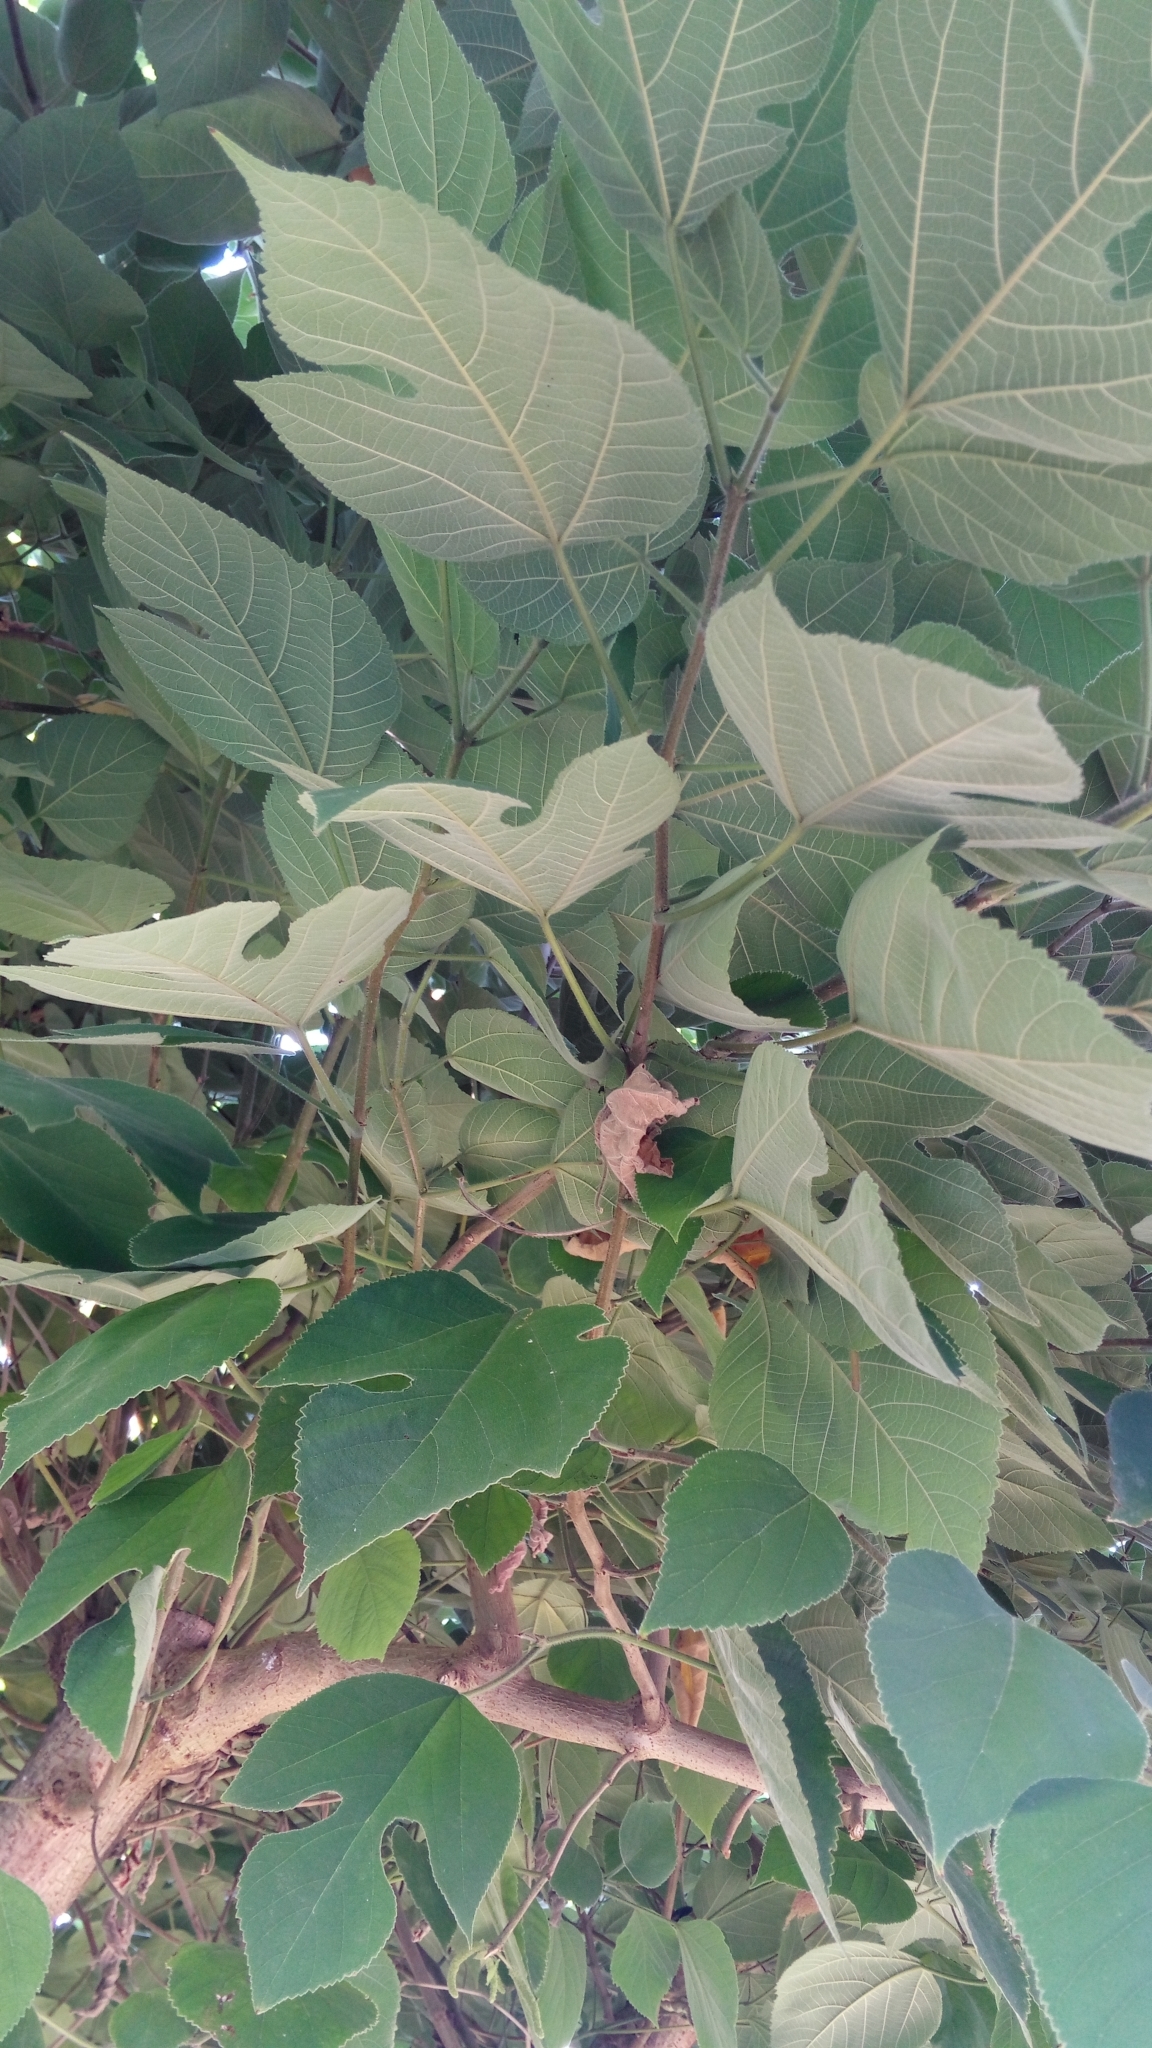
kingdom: Plantae
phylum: Tracheophyta
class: Magnoliopsida
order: Rosales
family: Moraceae
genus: Broussonetia
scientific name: Broussonetia papyrifera
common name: Paper mulberry
